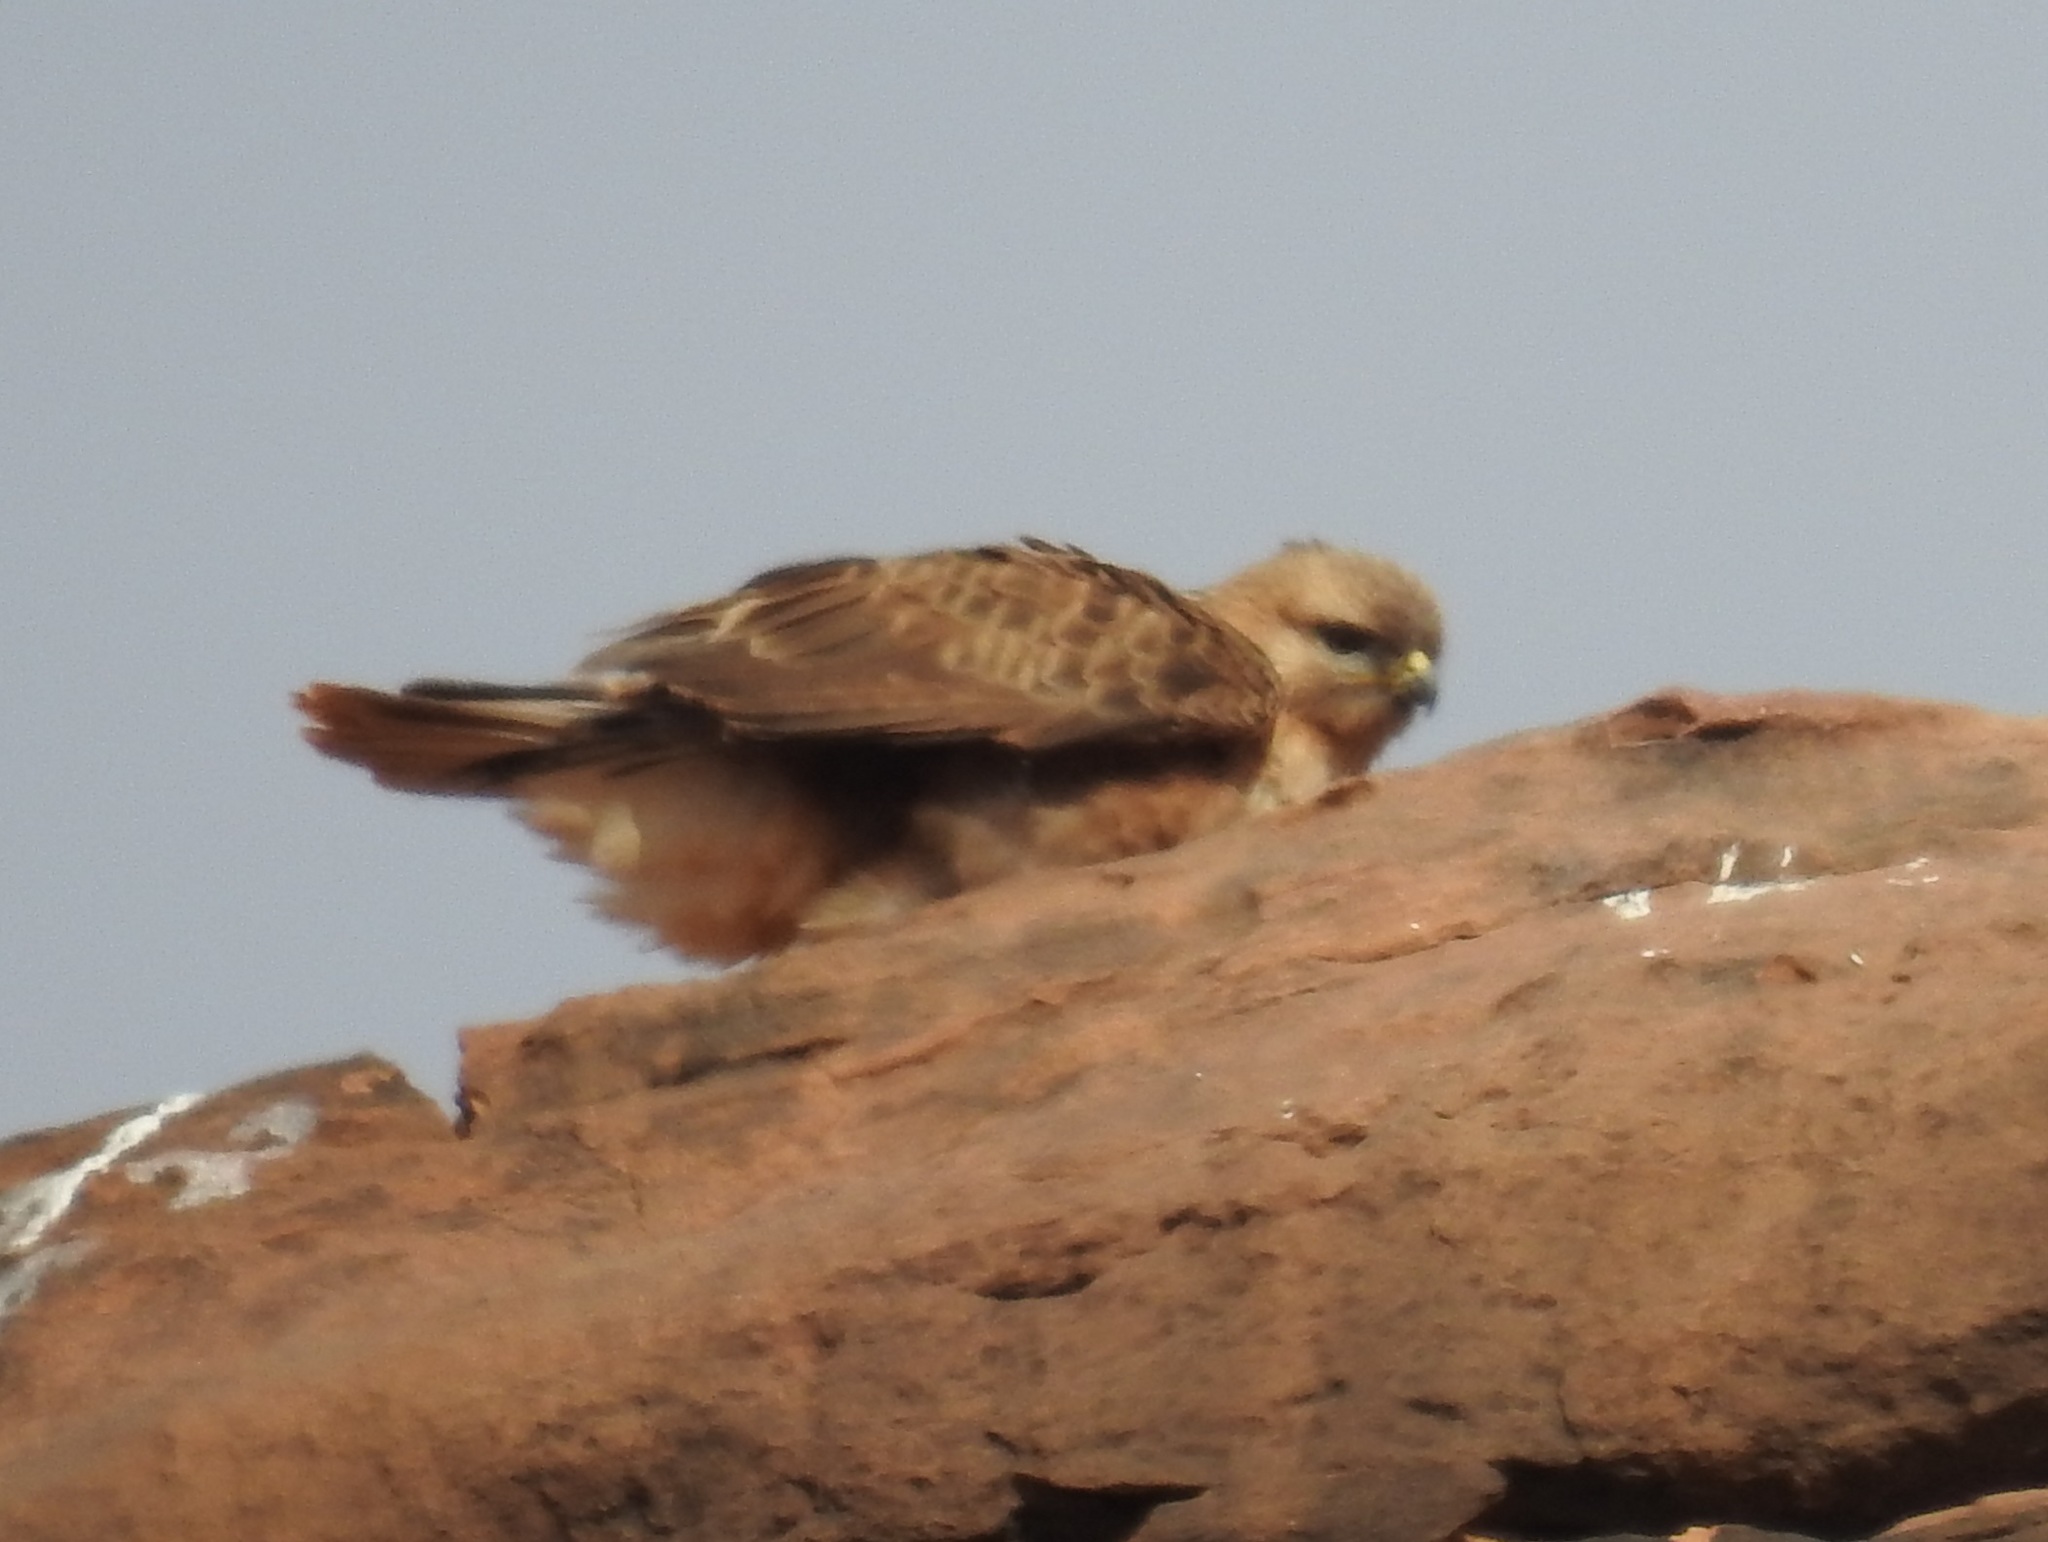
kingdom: Animalia
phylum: Chordata
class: Aves
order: Accipitriformes
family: Accipitridae
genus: Buteo
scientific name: Buteo rufinus
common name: Long-legged buzzard
